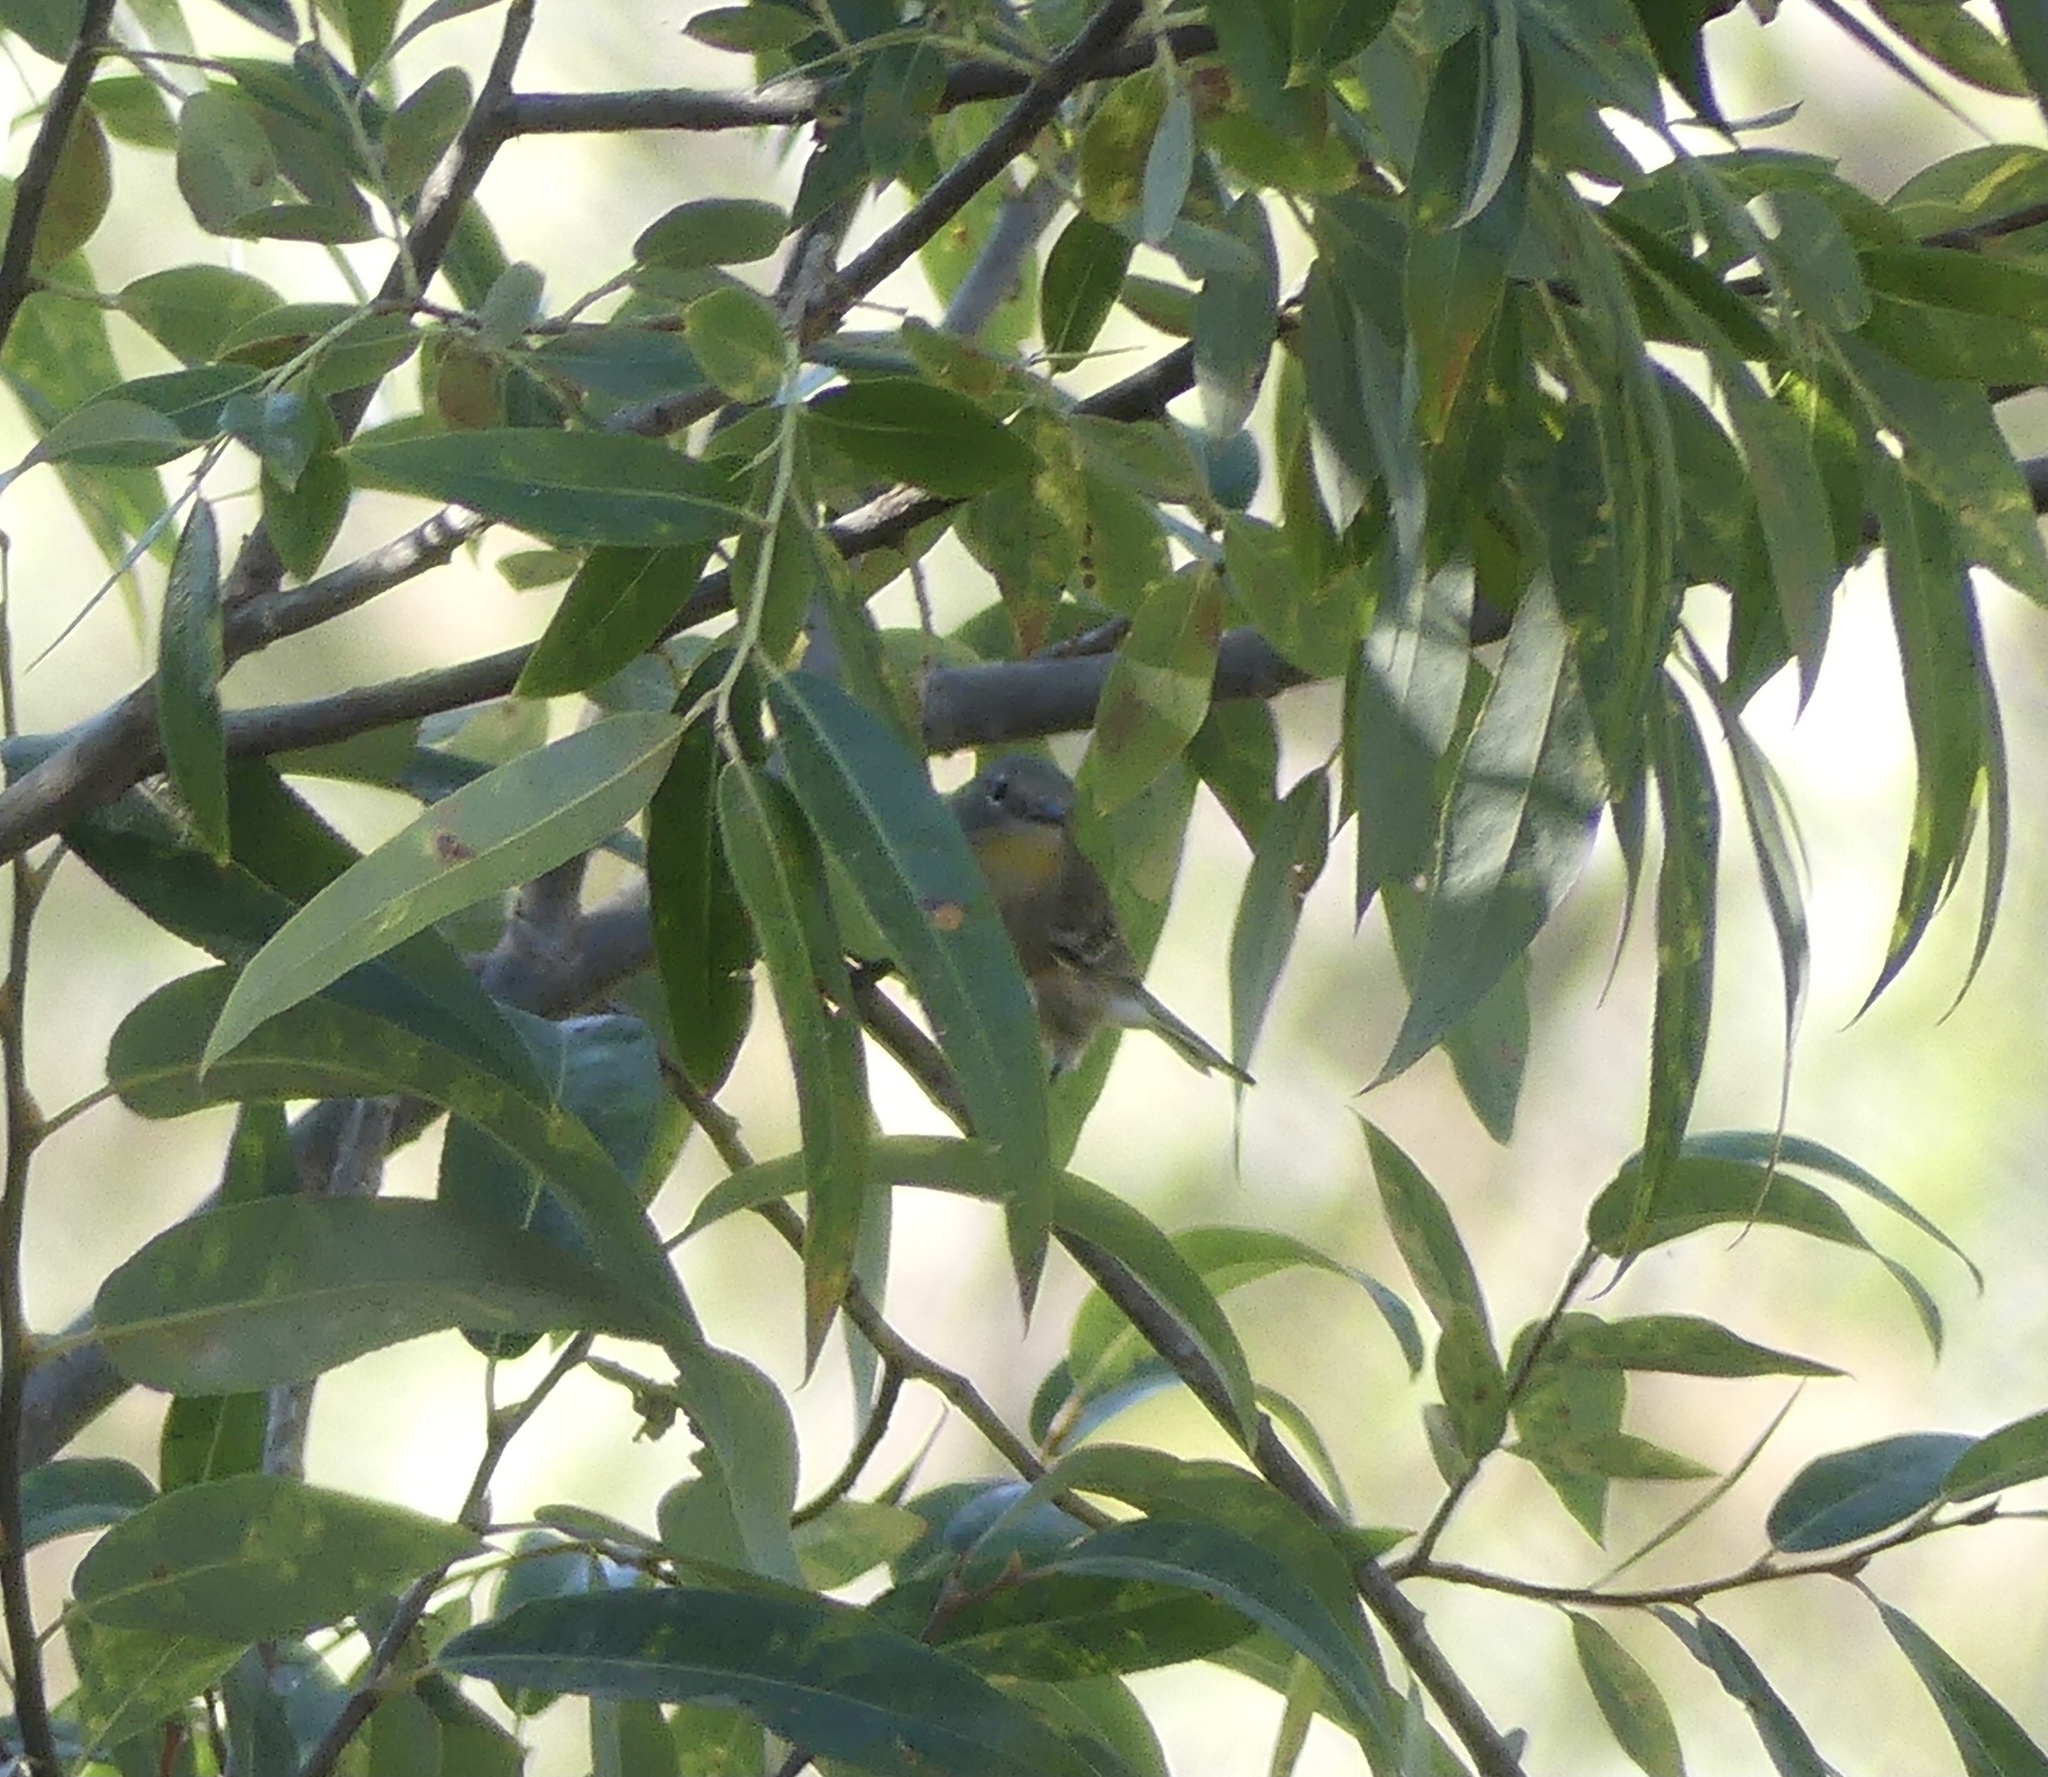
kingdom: Animalia
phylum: Chordata
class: Aves
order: Passeriformes
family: Parulidae
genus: Setophaga
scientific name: Setophaga coronata
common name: Myrtle warbler
